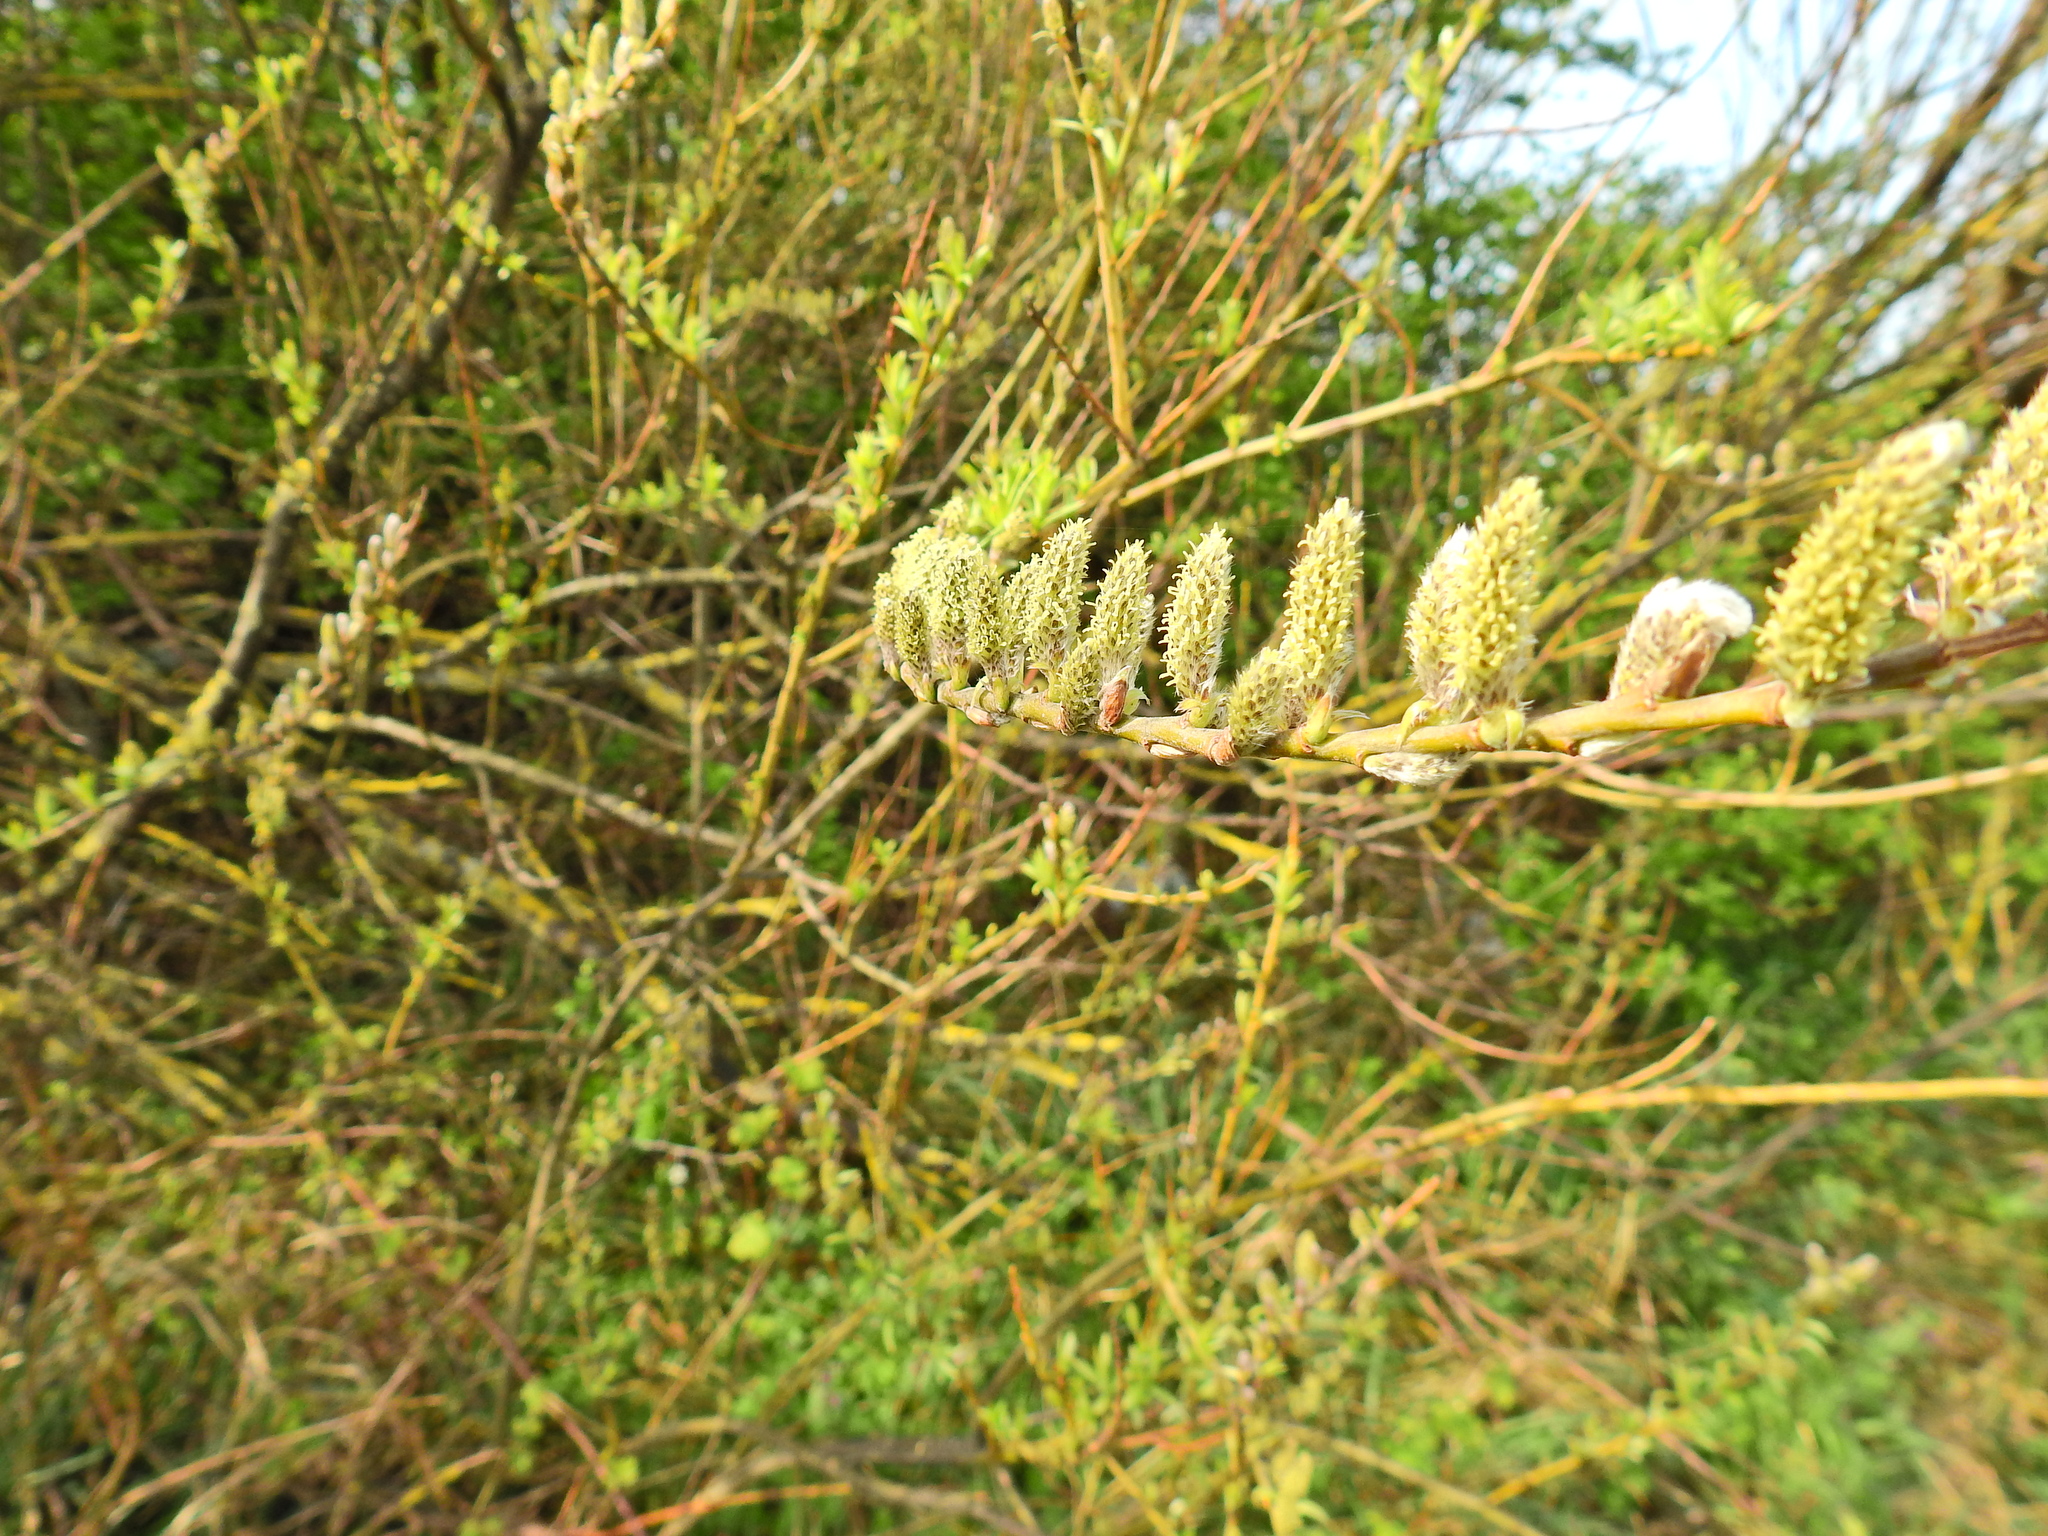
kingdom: Plantae
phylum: Tracheophyta
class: Magnoliopsida
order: Malpighiales
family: Salicaceae
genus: Salix
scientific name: Salix viminalis
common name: Osier
